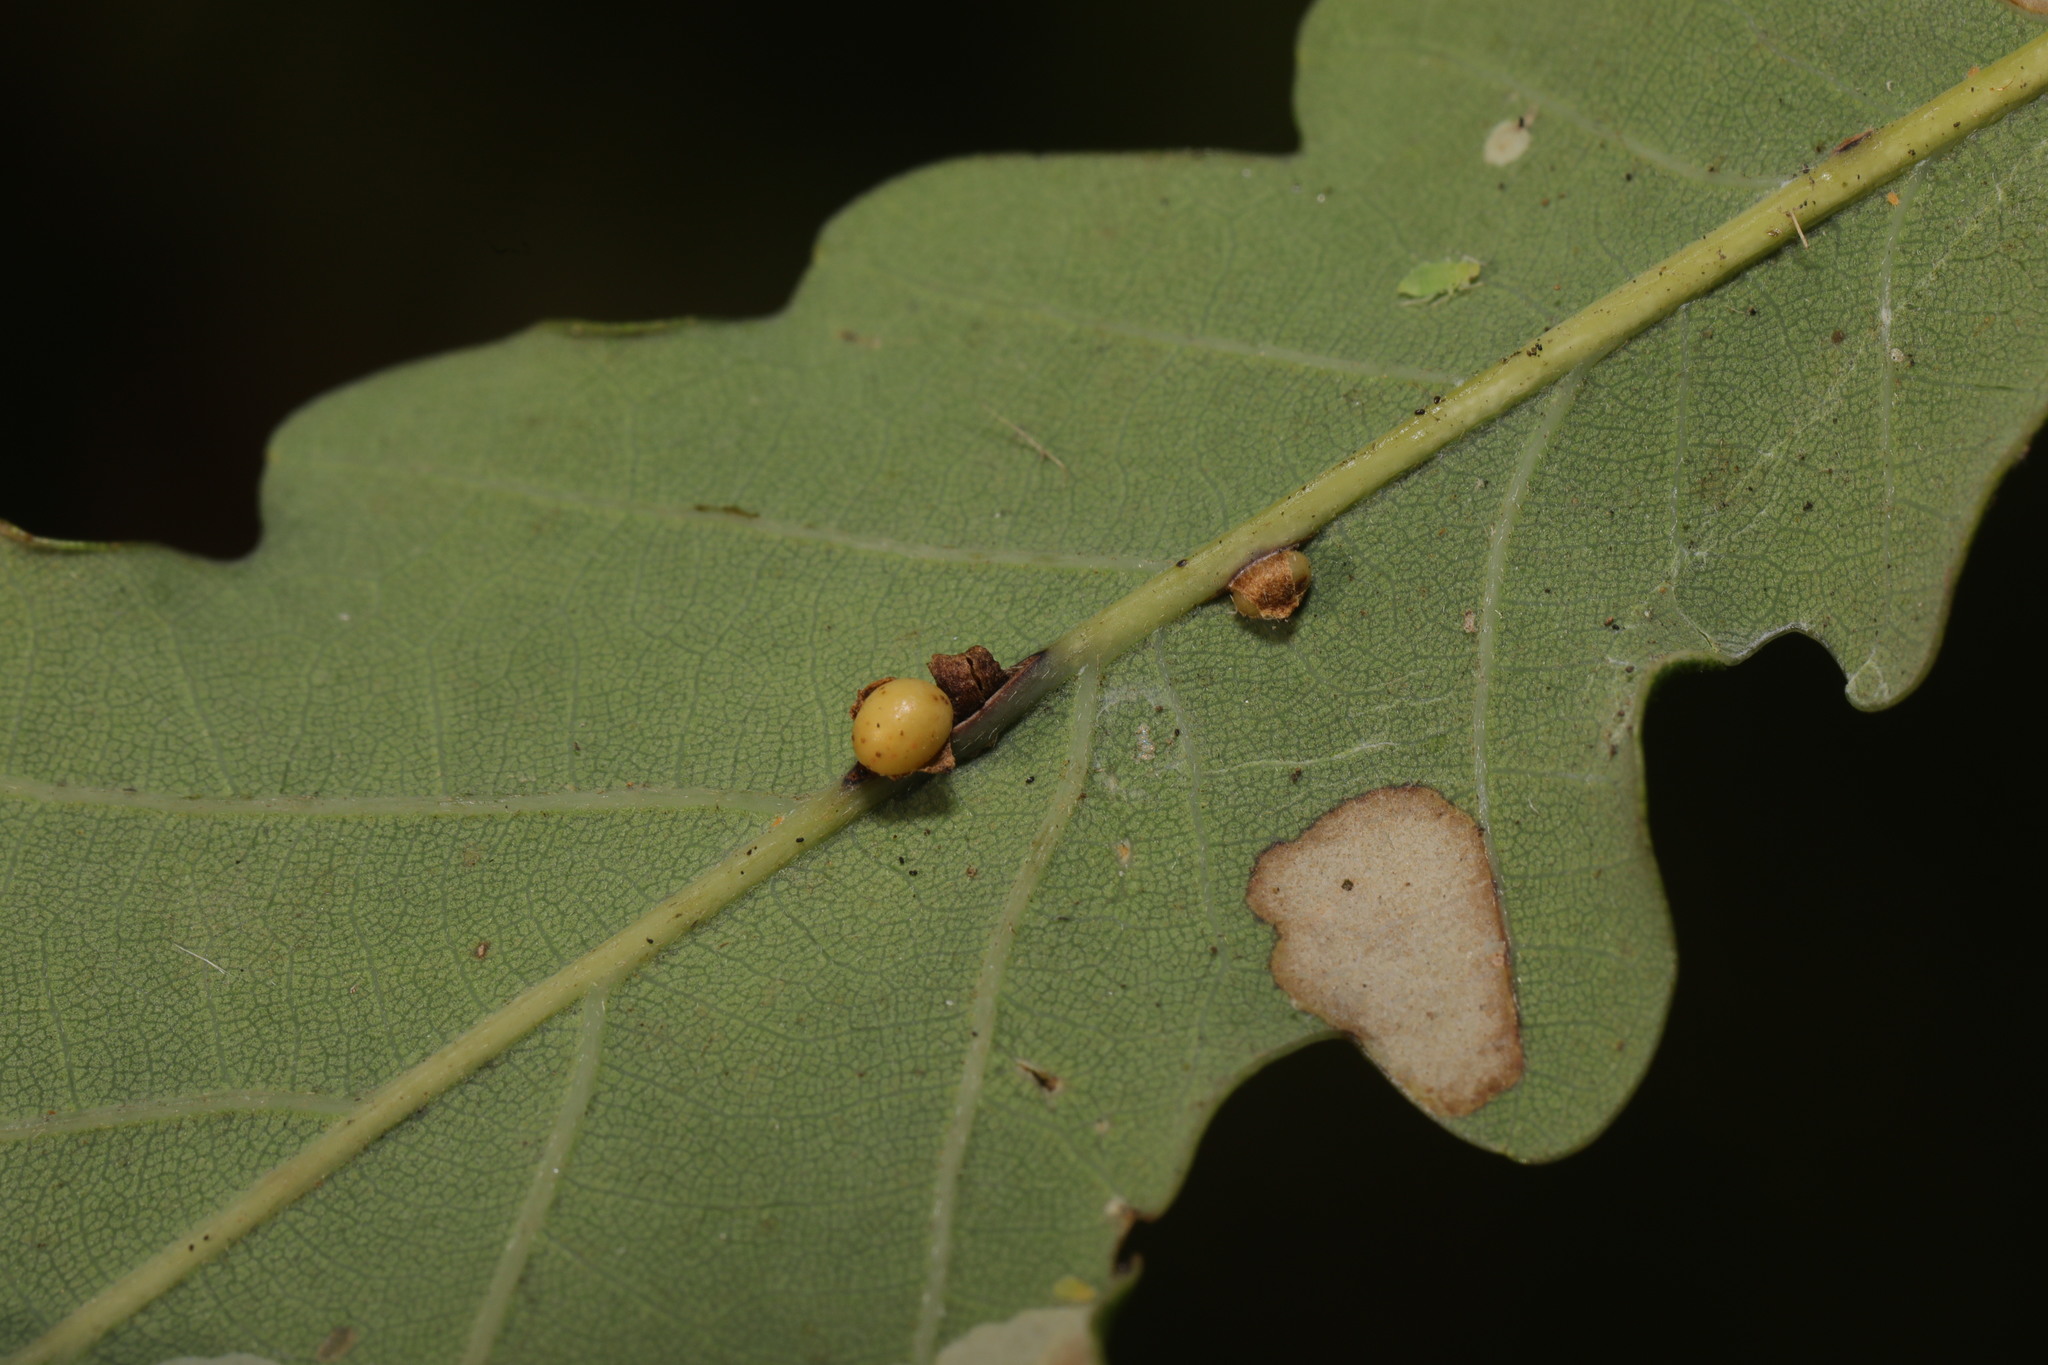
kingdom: Animalia
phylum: Arthropoda
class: Insecta
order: Hymenoptera
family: Cynipidae
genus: Neuroterus
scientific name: Neuroterus anthracinus
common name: Oyster gall
